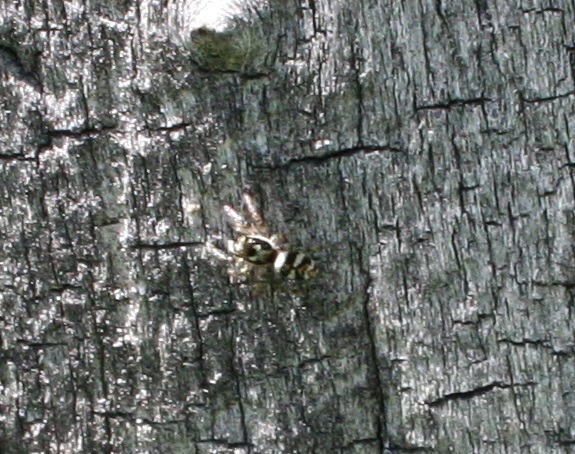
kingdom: Animalia
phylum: Arthropoda
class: Arachnida
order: Araneae
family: Salticidae
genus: Salticus
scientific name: Salticus scenicus
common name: Zebra jumper
